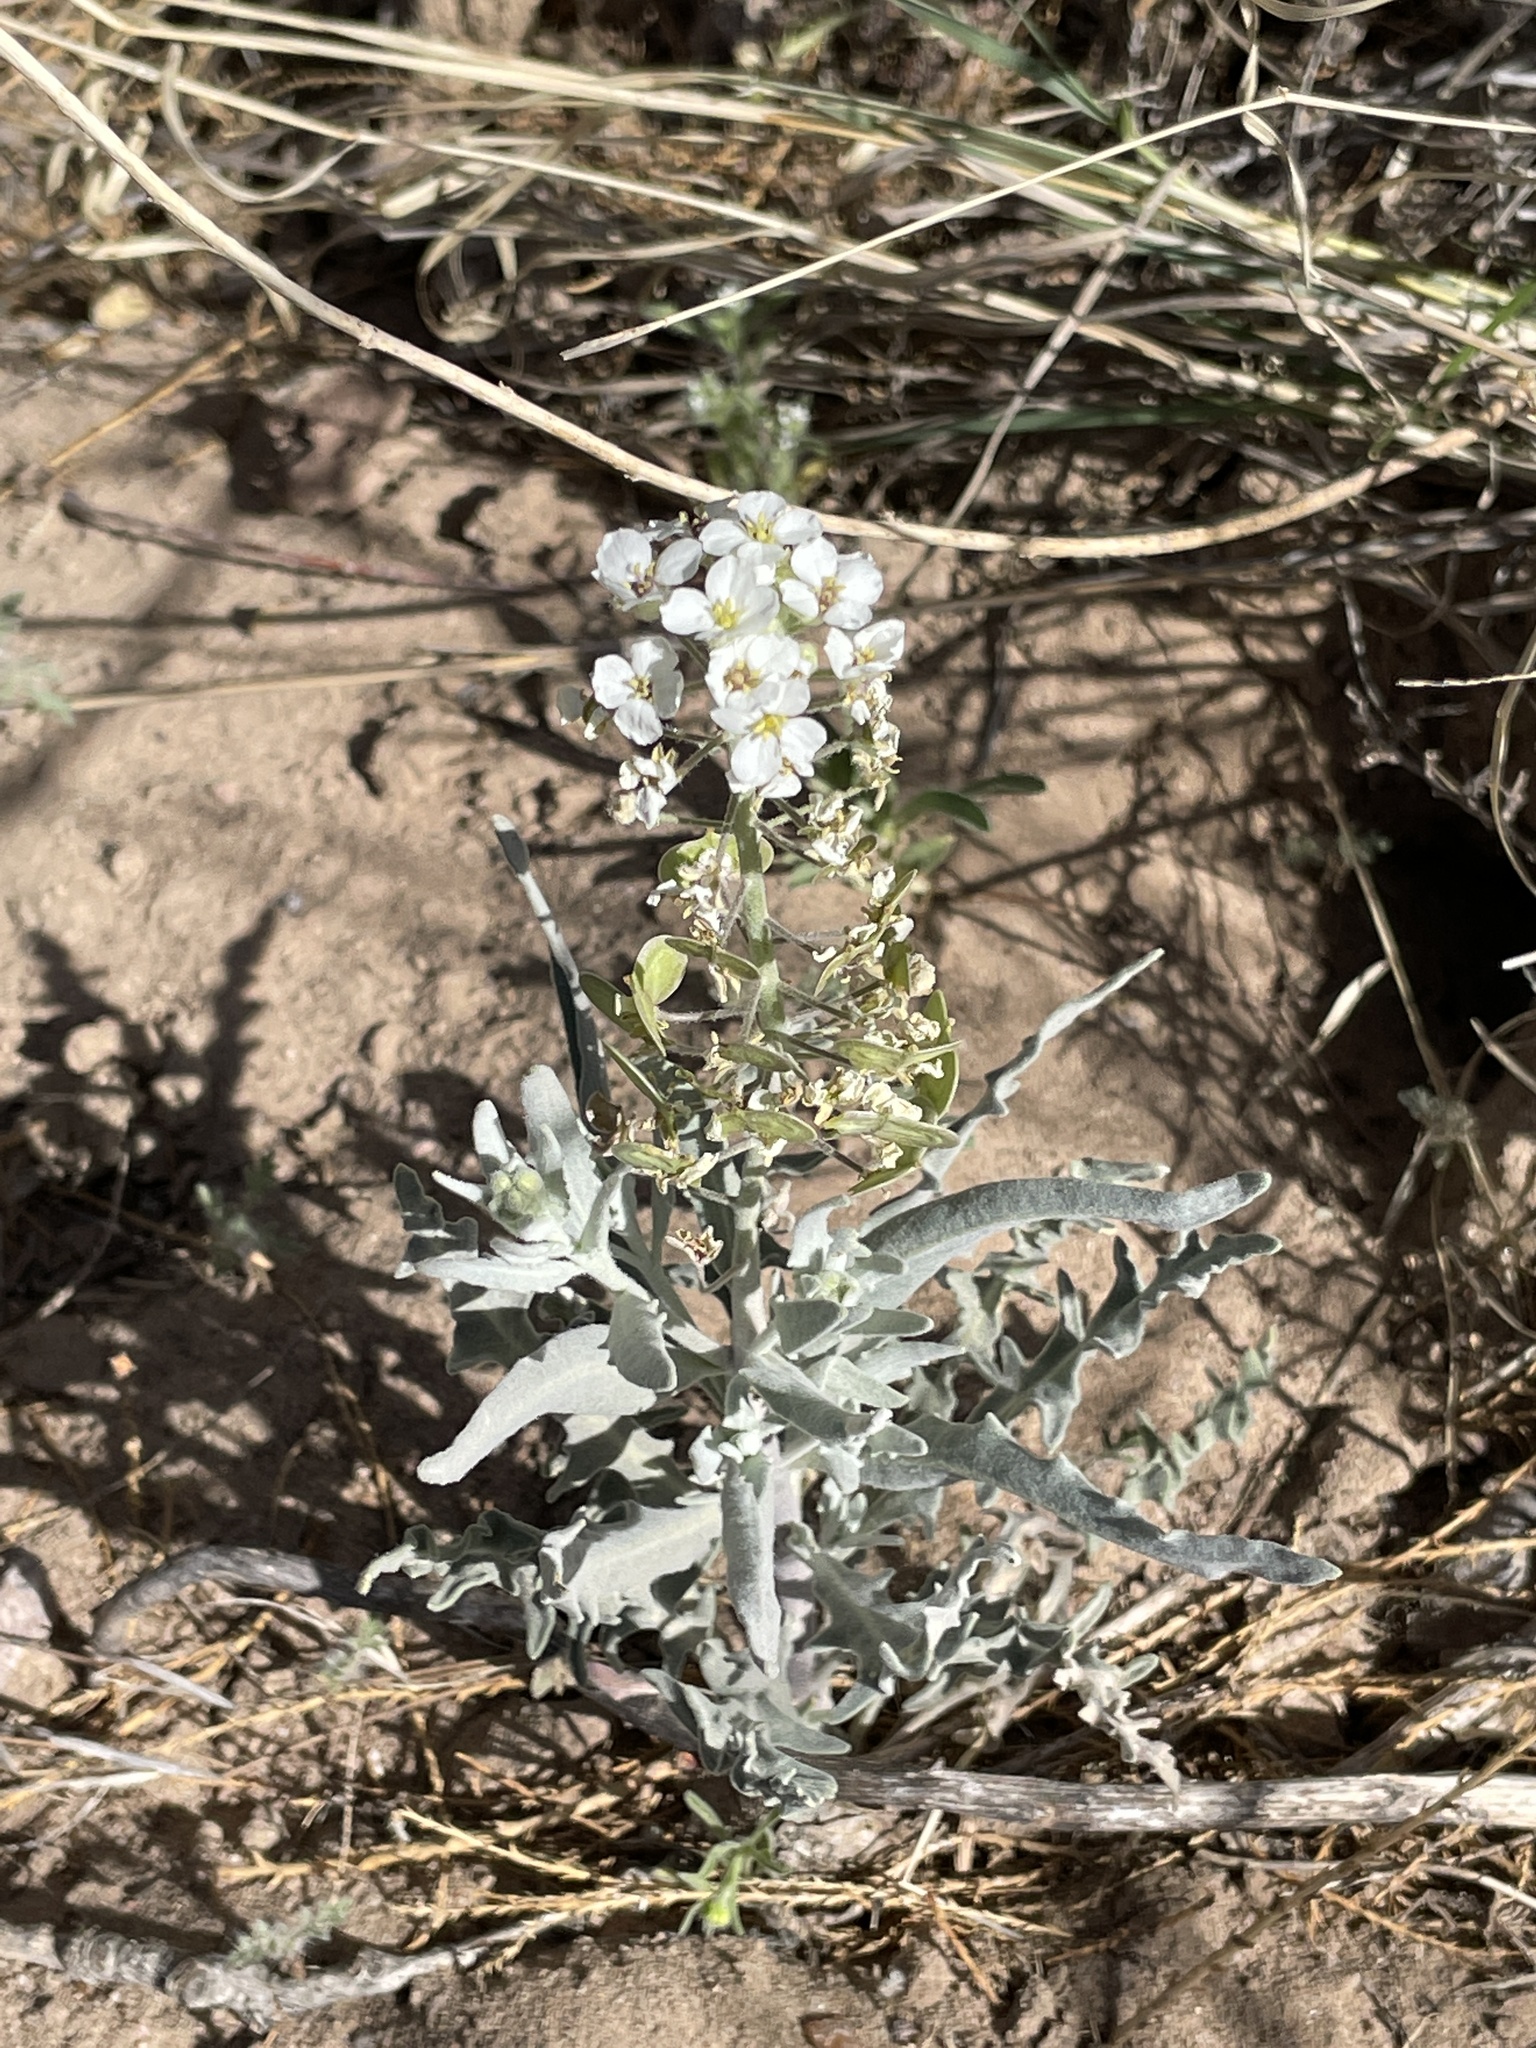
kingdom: Plantae
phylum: Tracheophyta
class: Magnoliopsida
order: Brassicales
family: Brassicaceae
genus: Dimorphocarpa
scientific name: Dimorphocarpa wislizenii
